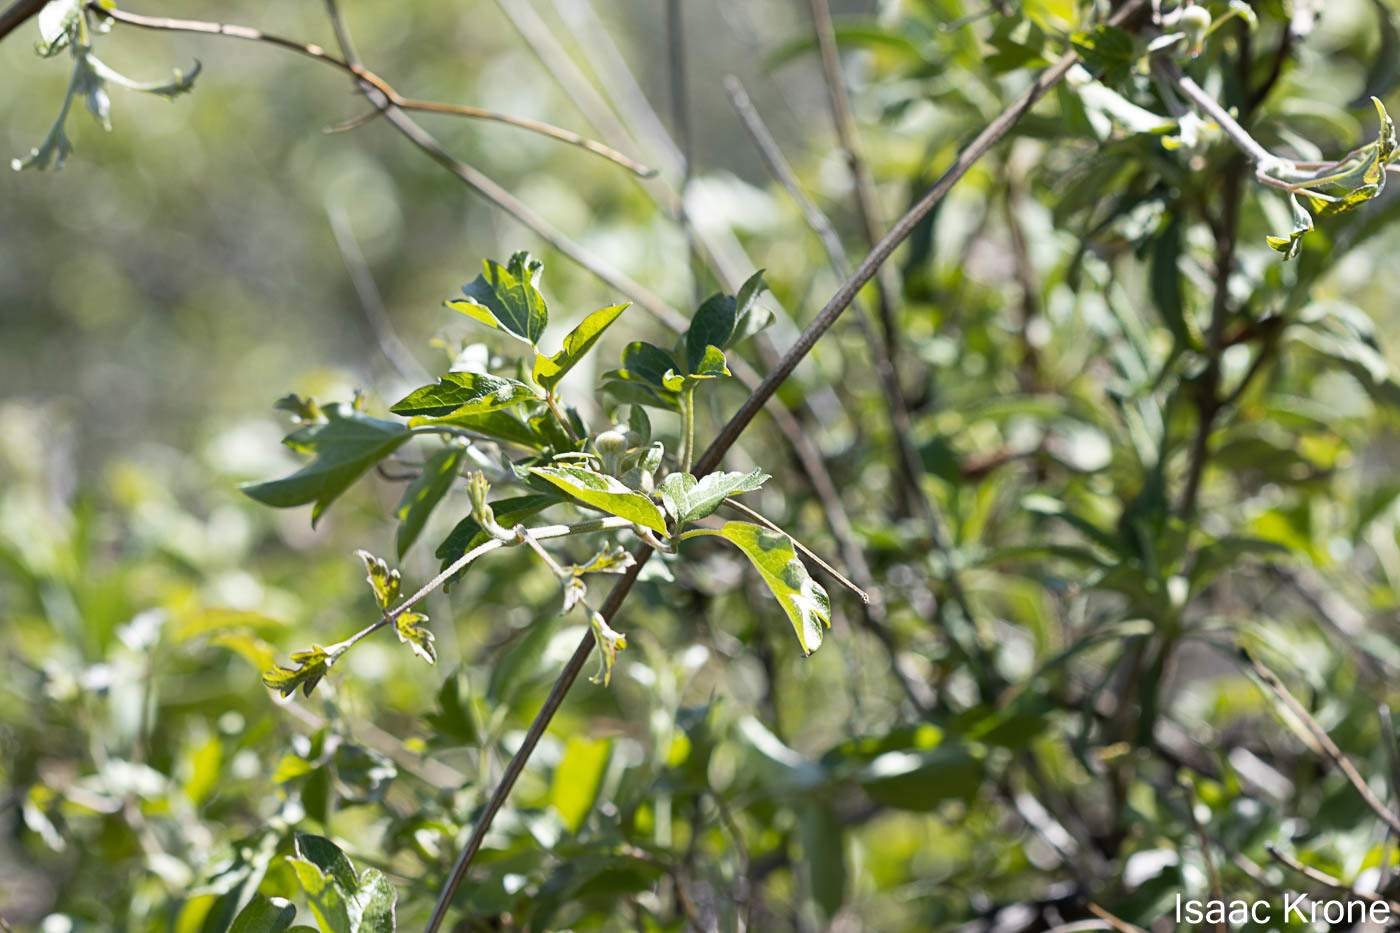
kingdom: Plantae
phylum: Tracheophyta
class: Magnoliopsida
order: Ranunculales
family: Ranunculaceae
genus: Clematis
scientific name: Clematis lasiantha
